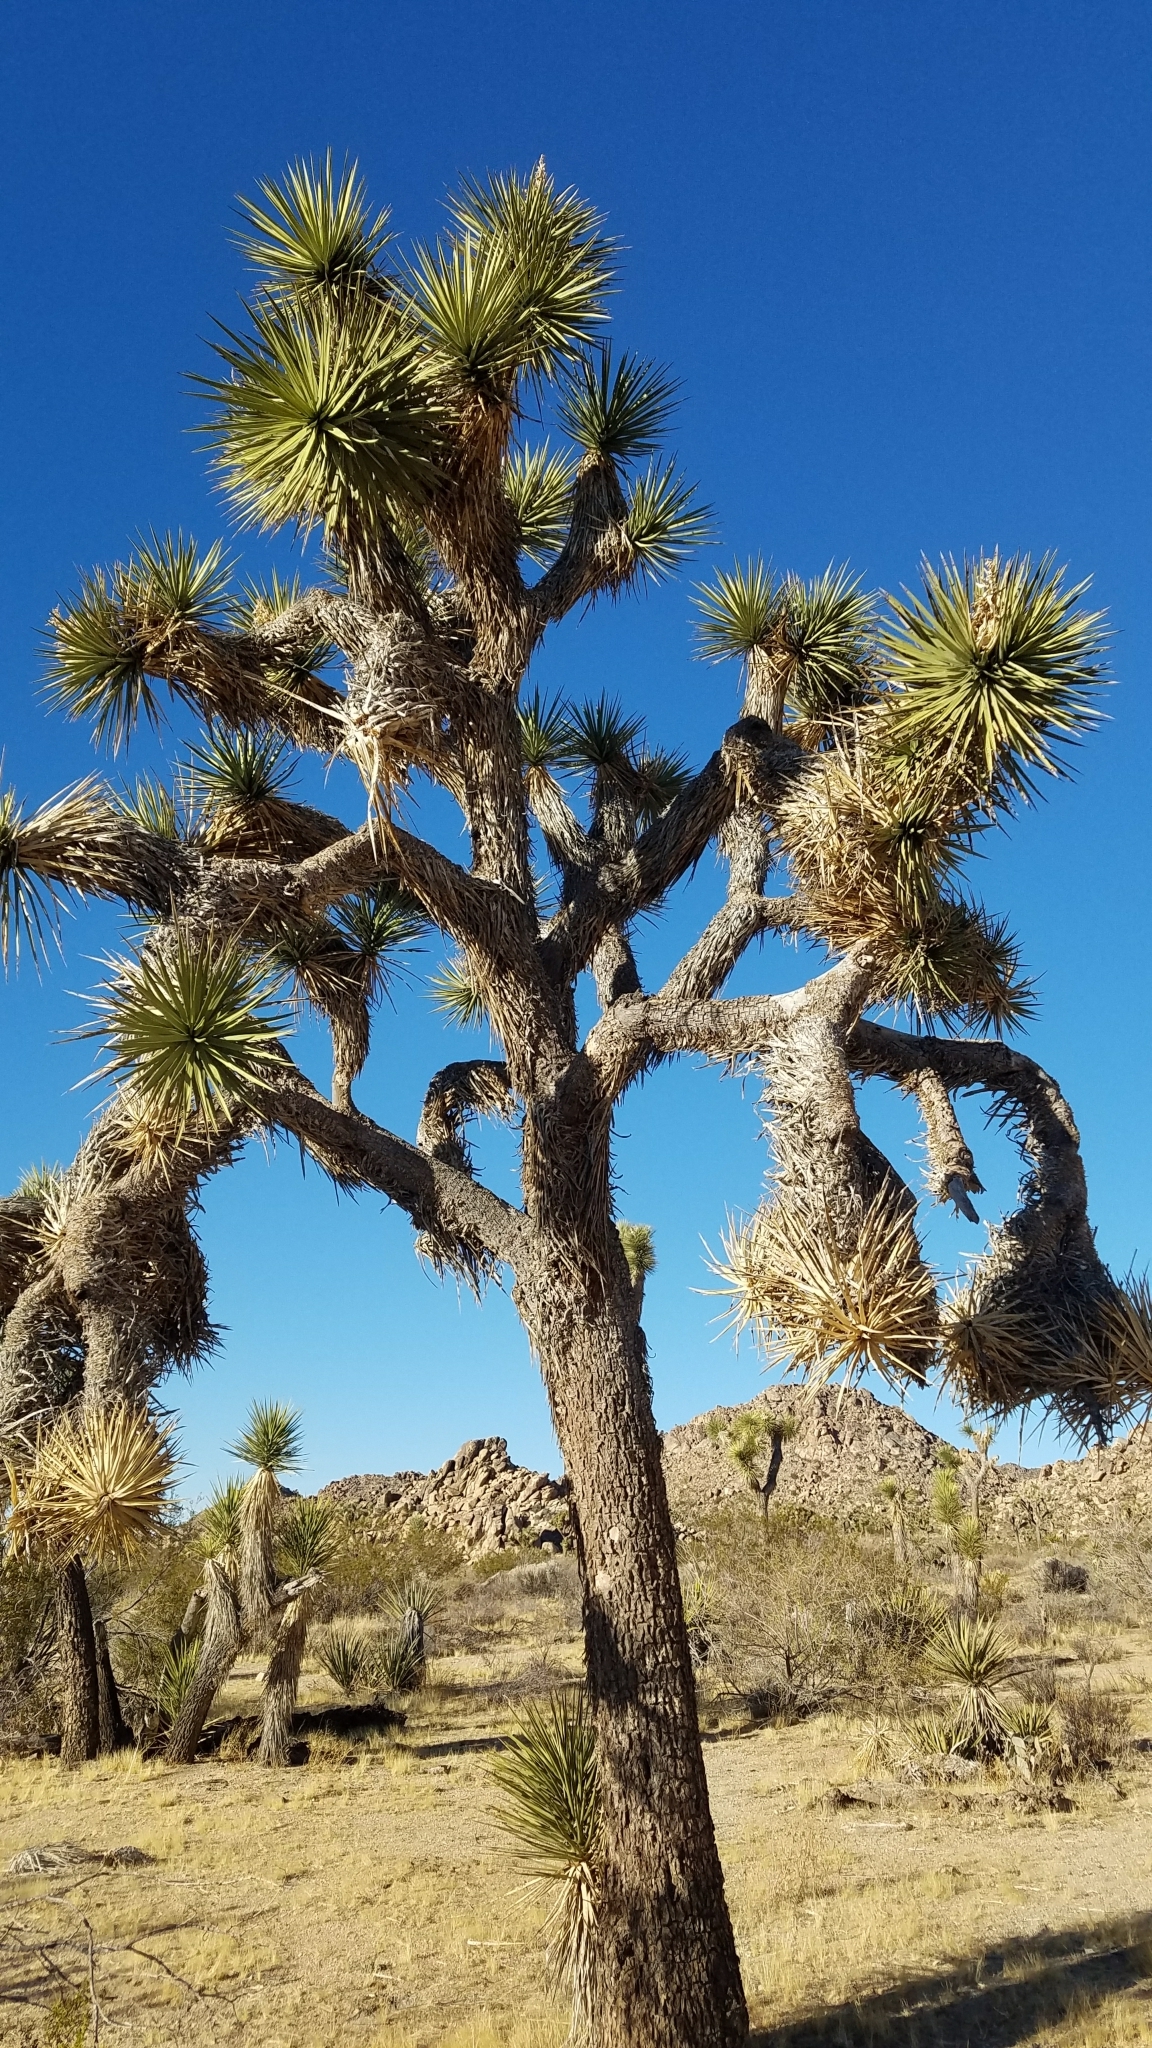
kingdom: Plantae
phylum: Tracheophyta
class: Liliopsida
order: Asparagales
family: Asparagaceae
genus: Yucca
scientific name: Yucca brevifolia
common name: Joshua tree
